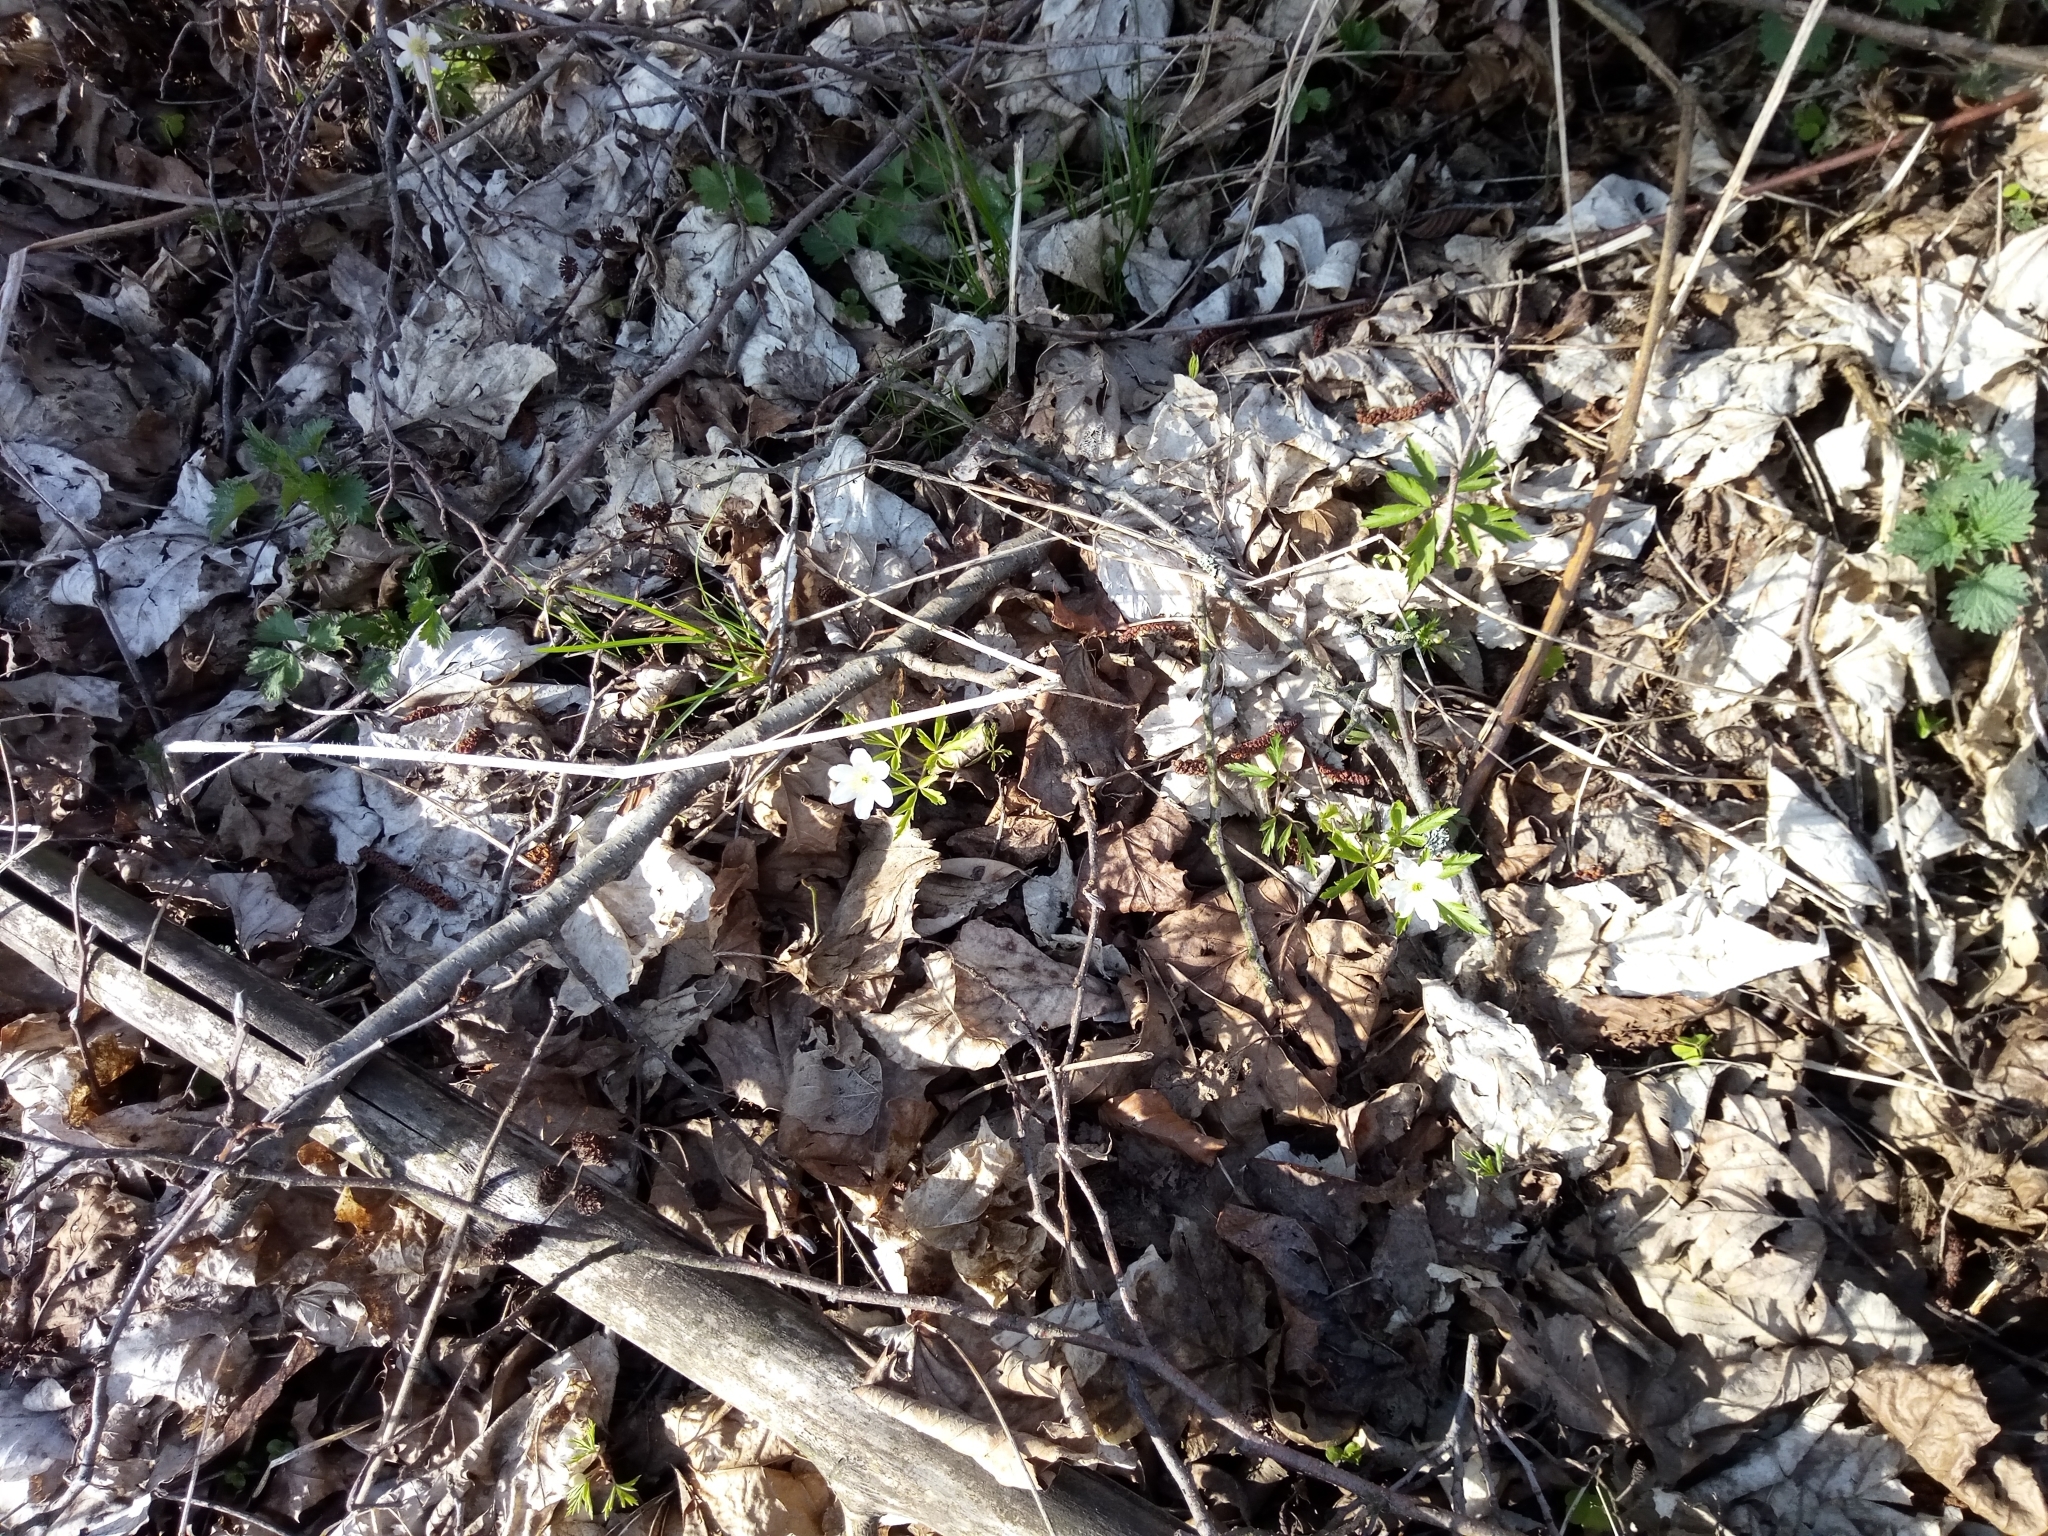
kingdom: Plantae
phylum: Tracheophyta
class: Magnoliopsida
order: Ranunculales
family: Ranunculaceae
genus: Anemone
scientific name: Anemone nemorosa
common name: Wood anemone
